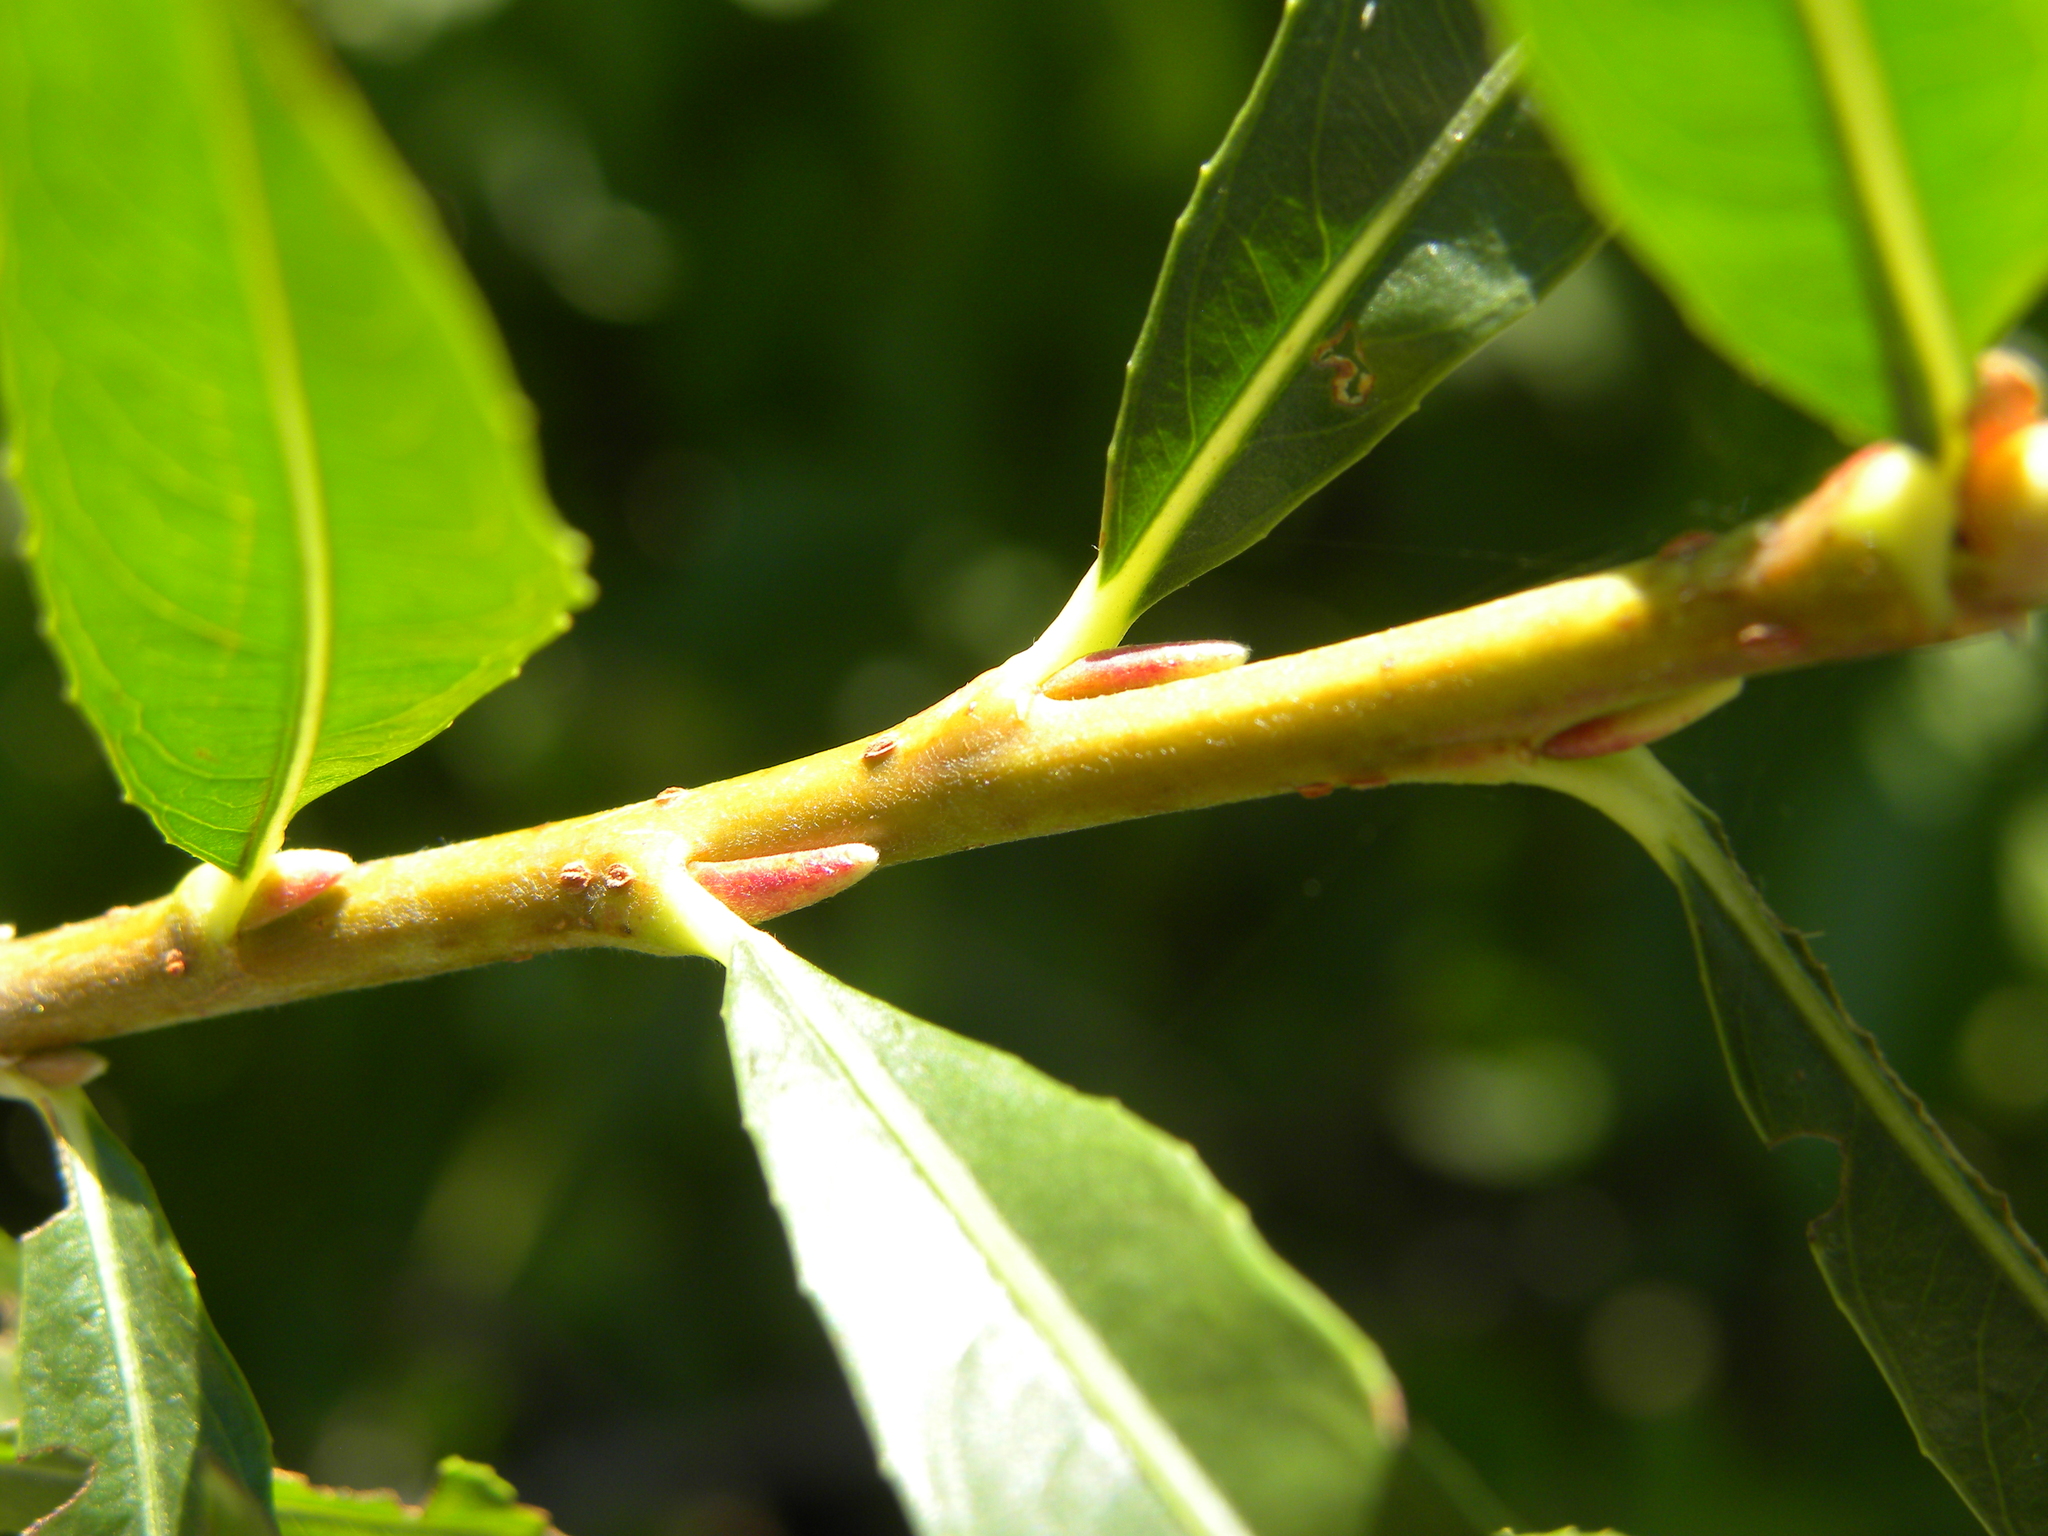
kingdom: Plantae
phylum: Tracheophyta
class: Magnoliopsida
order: Malpighiales
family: Salicaceae
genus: Salix
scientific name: Salix exigua
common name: Coyote willow
